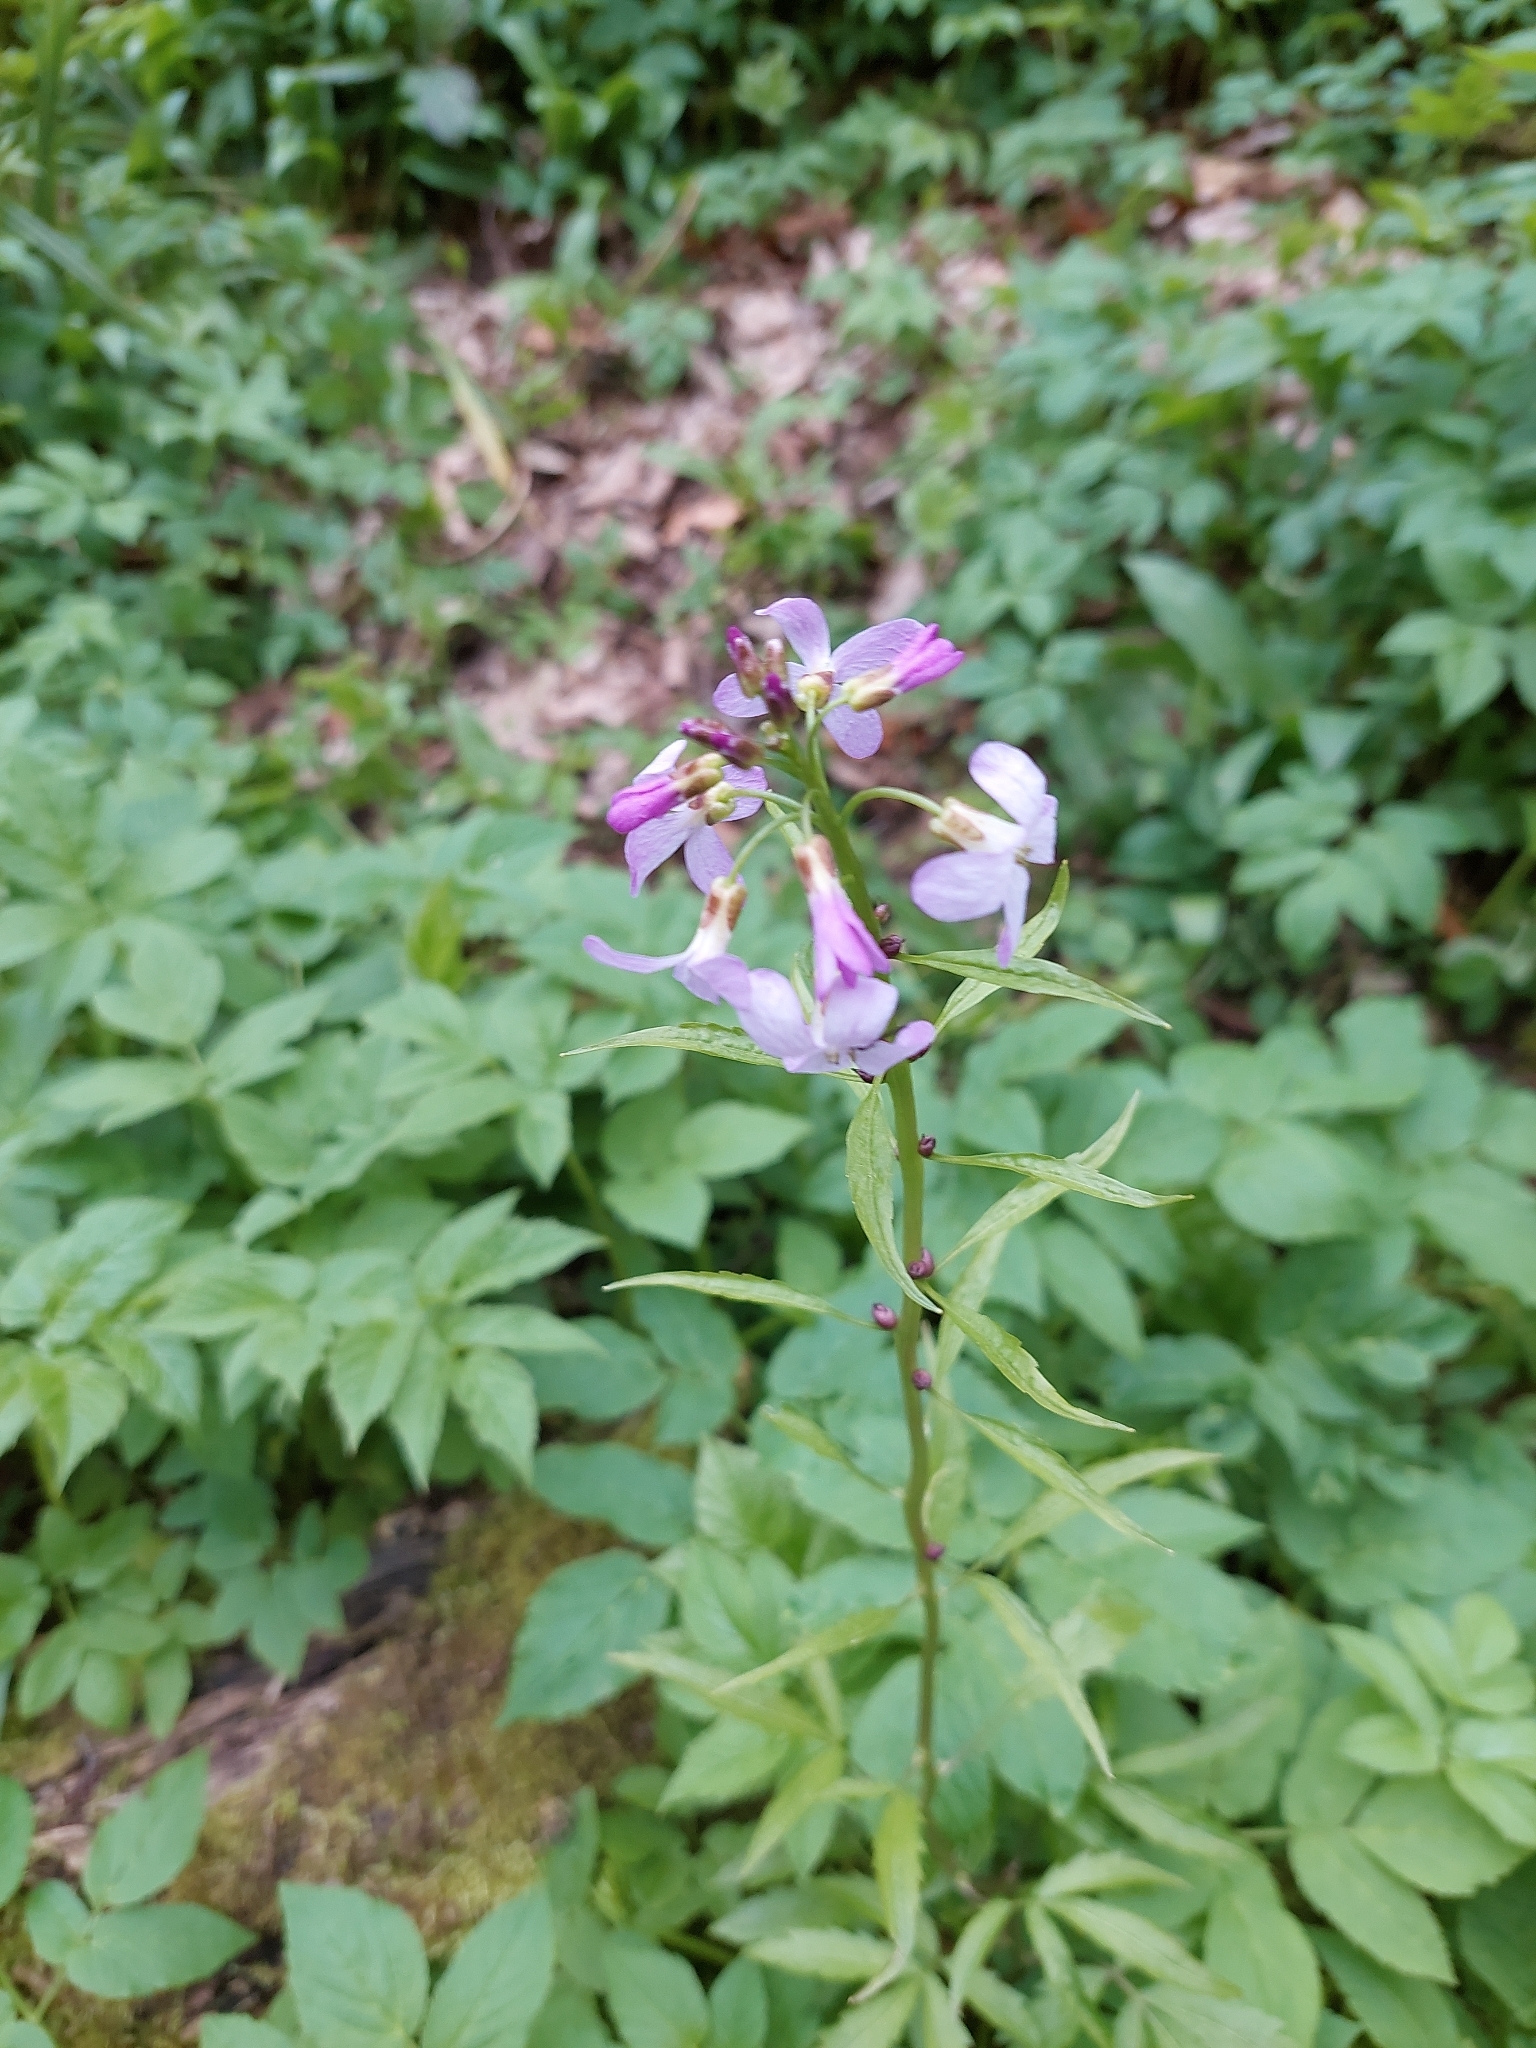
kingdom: Plantae
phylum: Tracheophyta
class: Magnoliopsida
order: Brassicales
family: Brassicaceae
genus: Cardamine
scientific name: Cardamine bulbifera
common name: Coralroot bittercress
